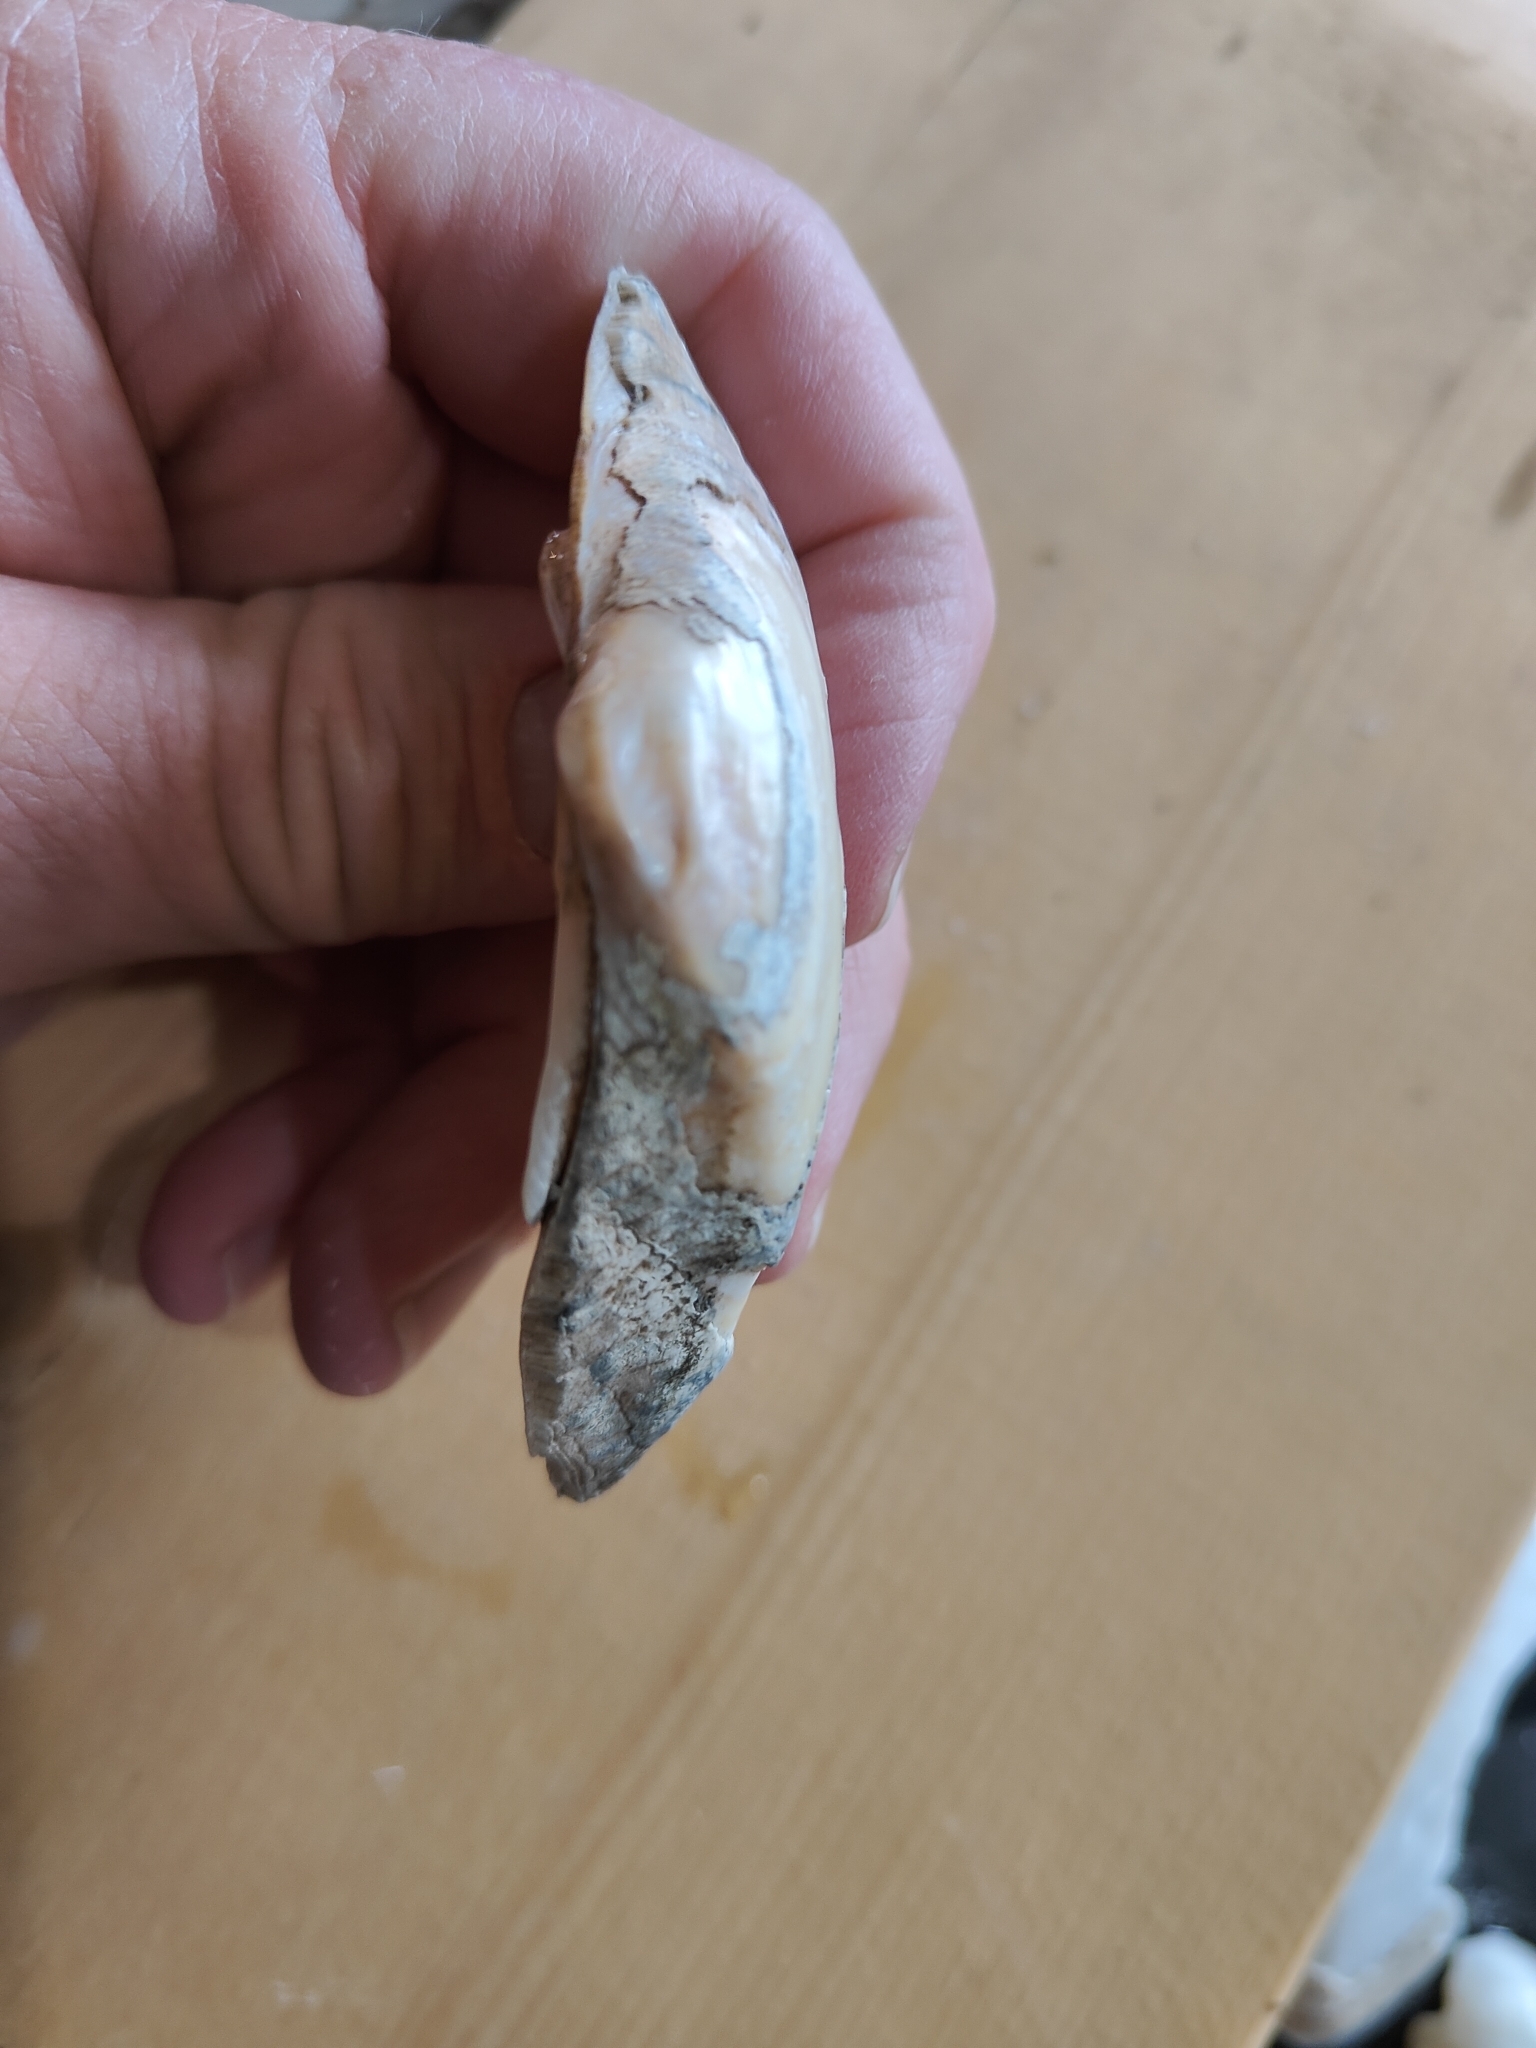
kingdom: Animalia
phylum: Mollusca
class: Bivalvia
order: Unionida
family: Unionidae
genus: Alasmidonta
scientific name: Alasmidonta marginata
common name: Elktoe
